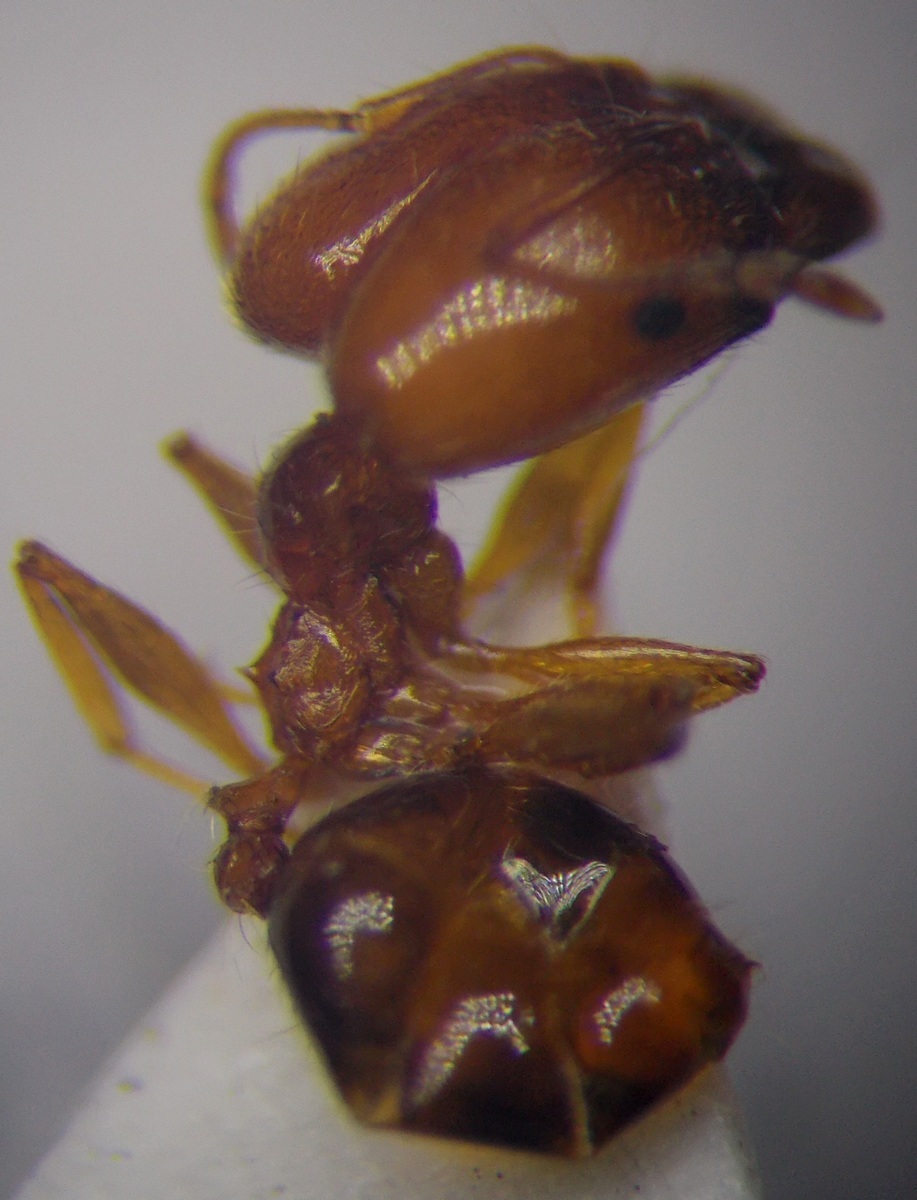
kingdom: Animalia
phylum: Arthropoda
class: Insecta
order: Hymenoptera
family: Formicidae
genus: Pheidole
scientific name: Pheidole pallidula
